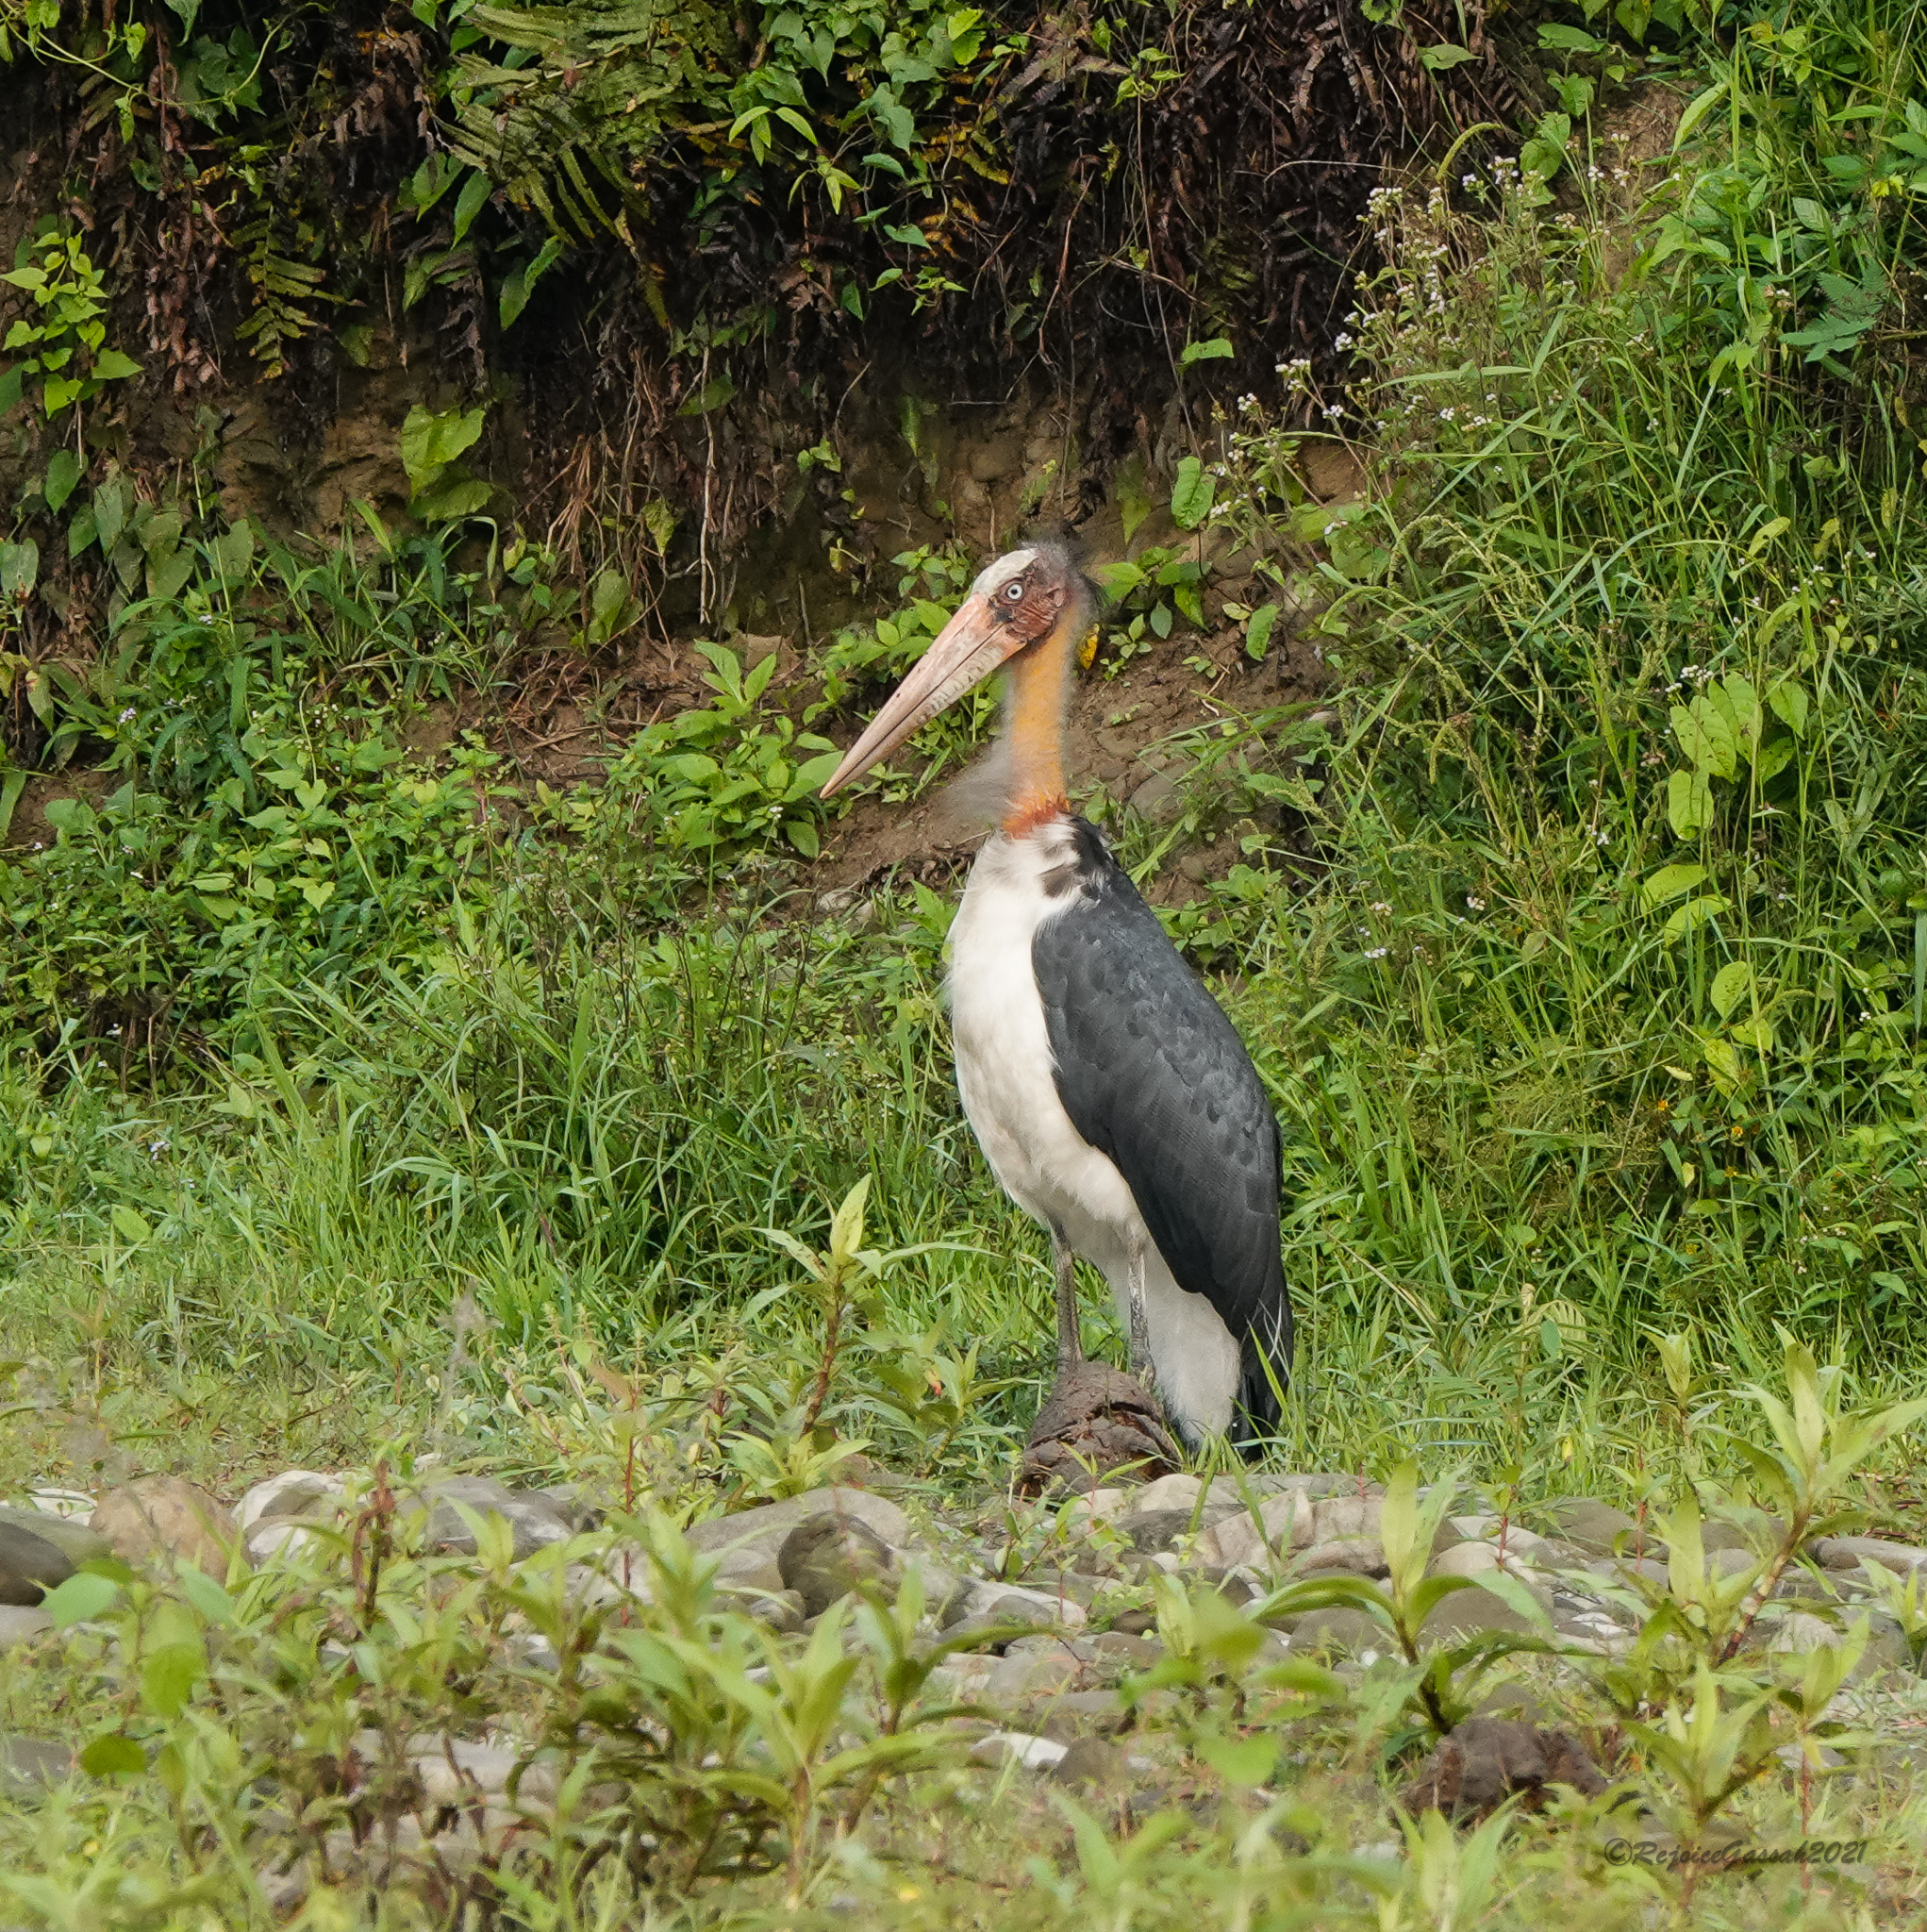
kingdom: Animalia
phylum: Chordata
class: Aves
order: Ciconiiformes
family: Ciconiidae
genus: Leptoptilos
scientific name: Leptoptilos javanicus
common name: Lesser adjutant
